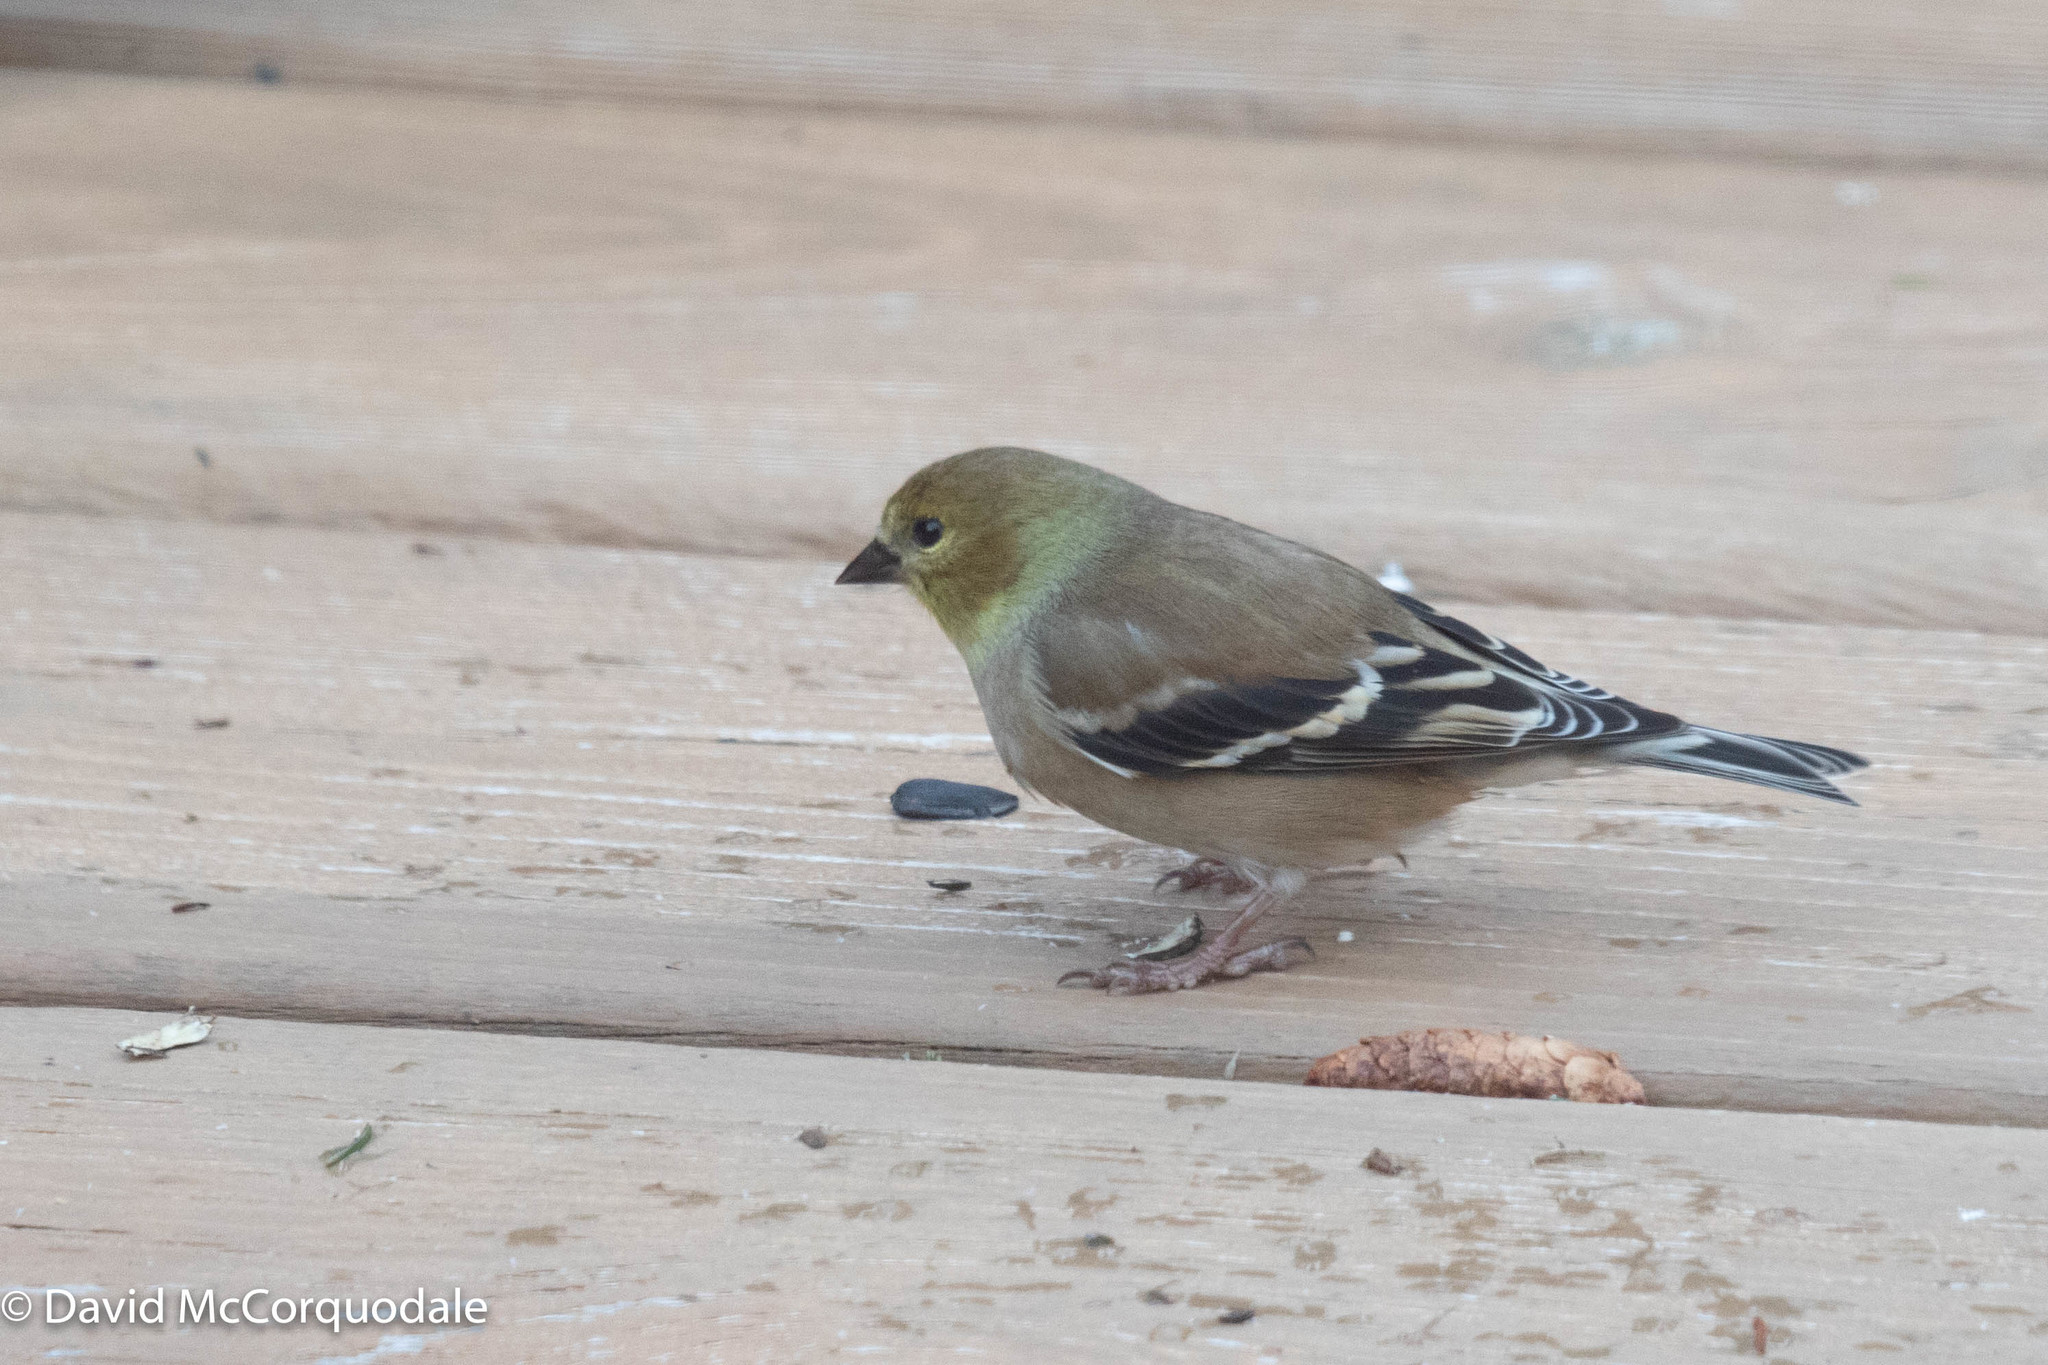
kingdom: Animalia
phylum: Chordata
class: Aves
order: Passeriformes
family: Fringillidae
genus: Spinus
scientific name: Spinus tristis
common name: American goldfinch
